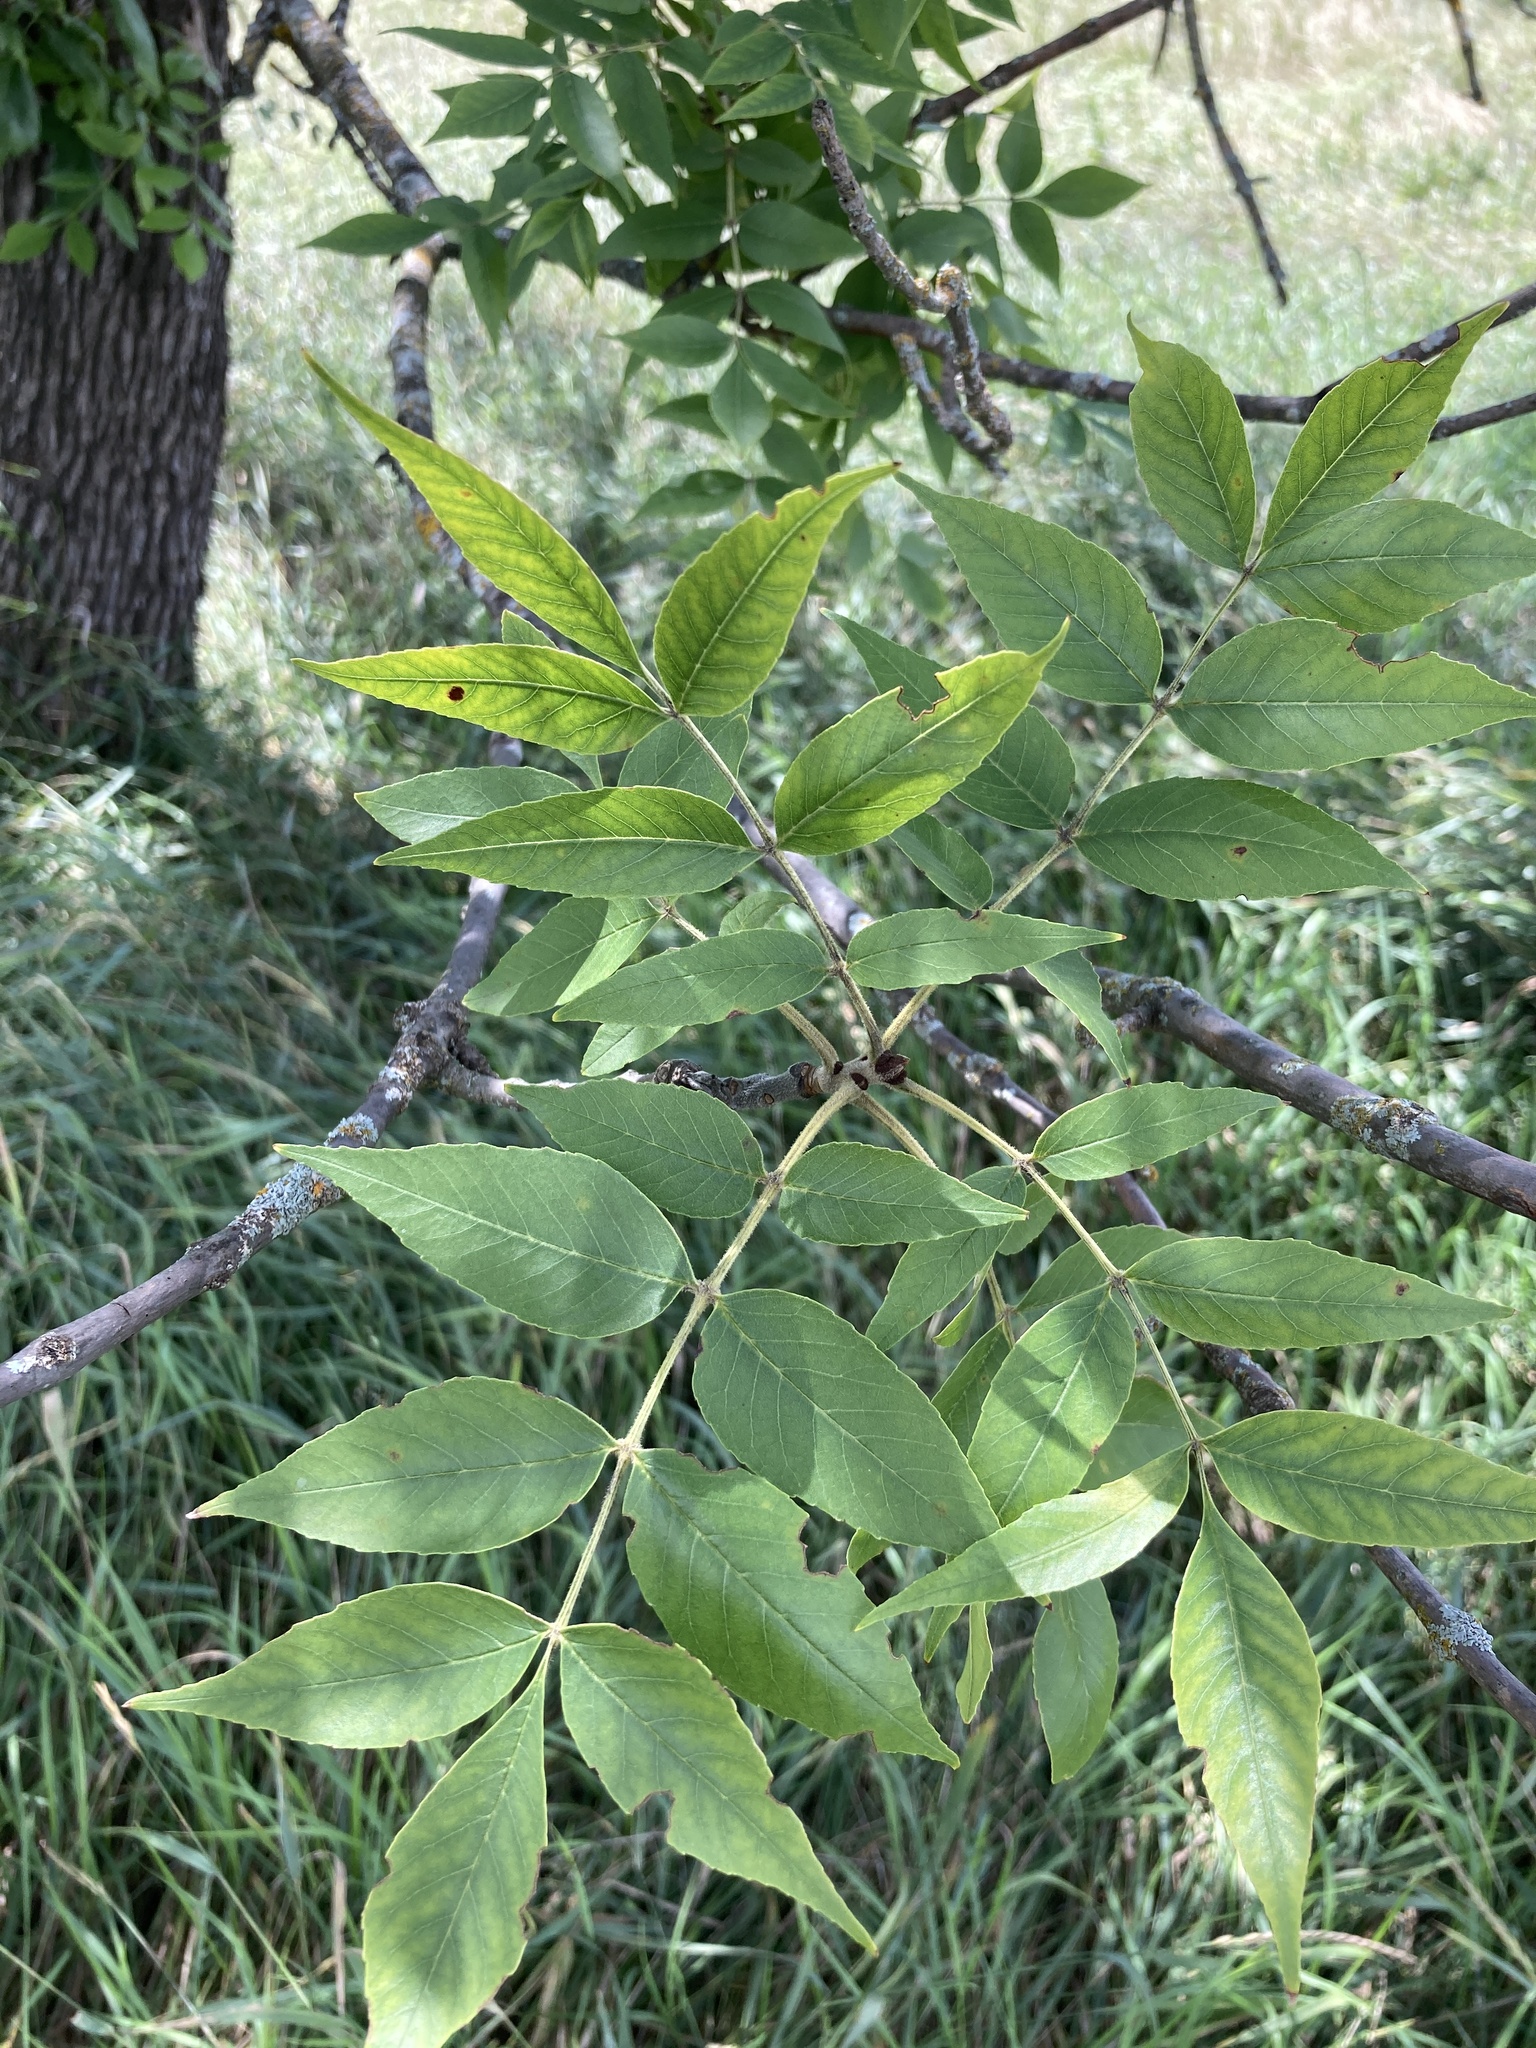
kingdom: Plantae
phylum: Tracheophyta
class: Magnoliopsida
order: Lamiales
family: Oleaceae
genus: Fraxinus
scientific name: Fraxinus pennsylvanica
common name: Green ash
